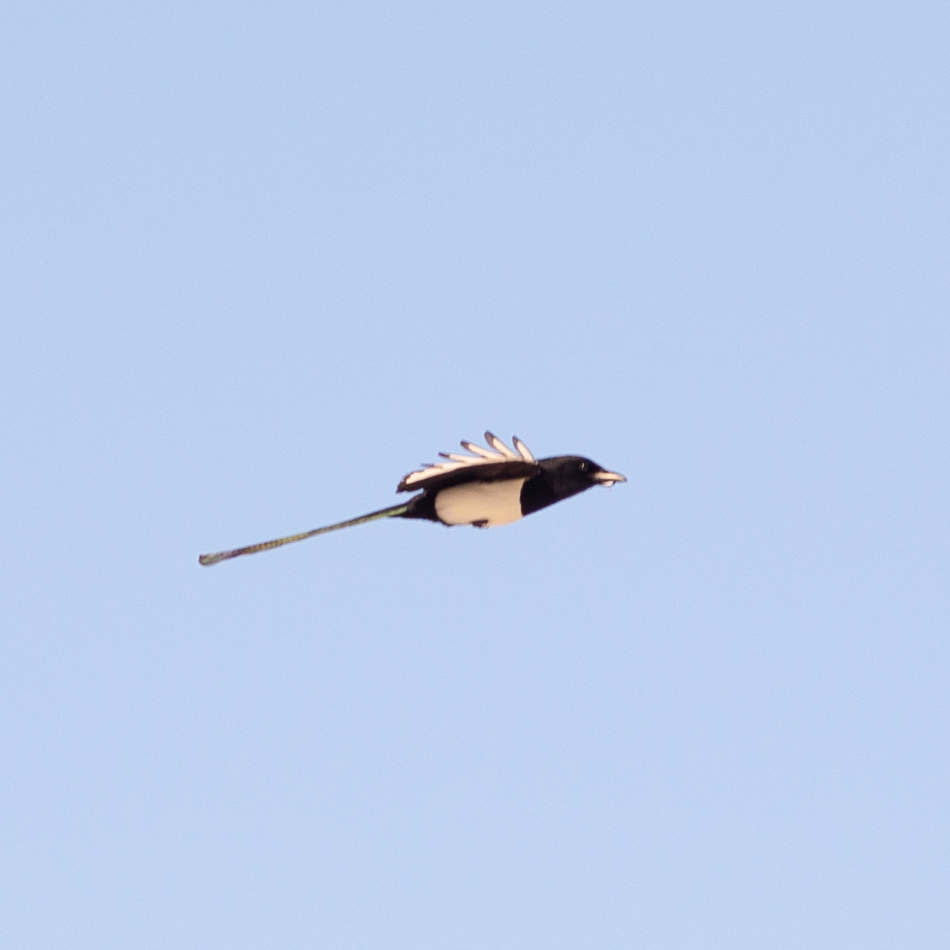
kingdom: Animalia
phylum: Chordata
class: Aves
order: Passeriformes
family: Corvidae
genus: Pica
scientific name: Pica pica
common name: Eurasian magpie
